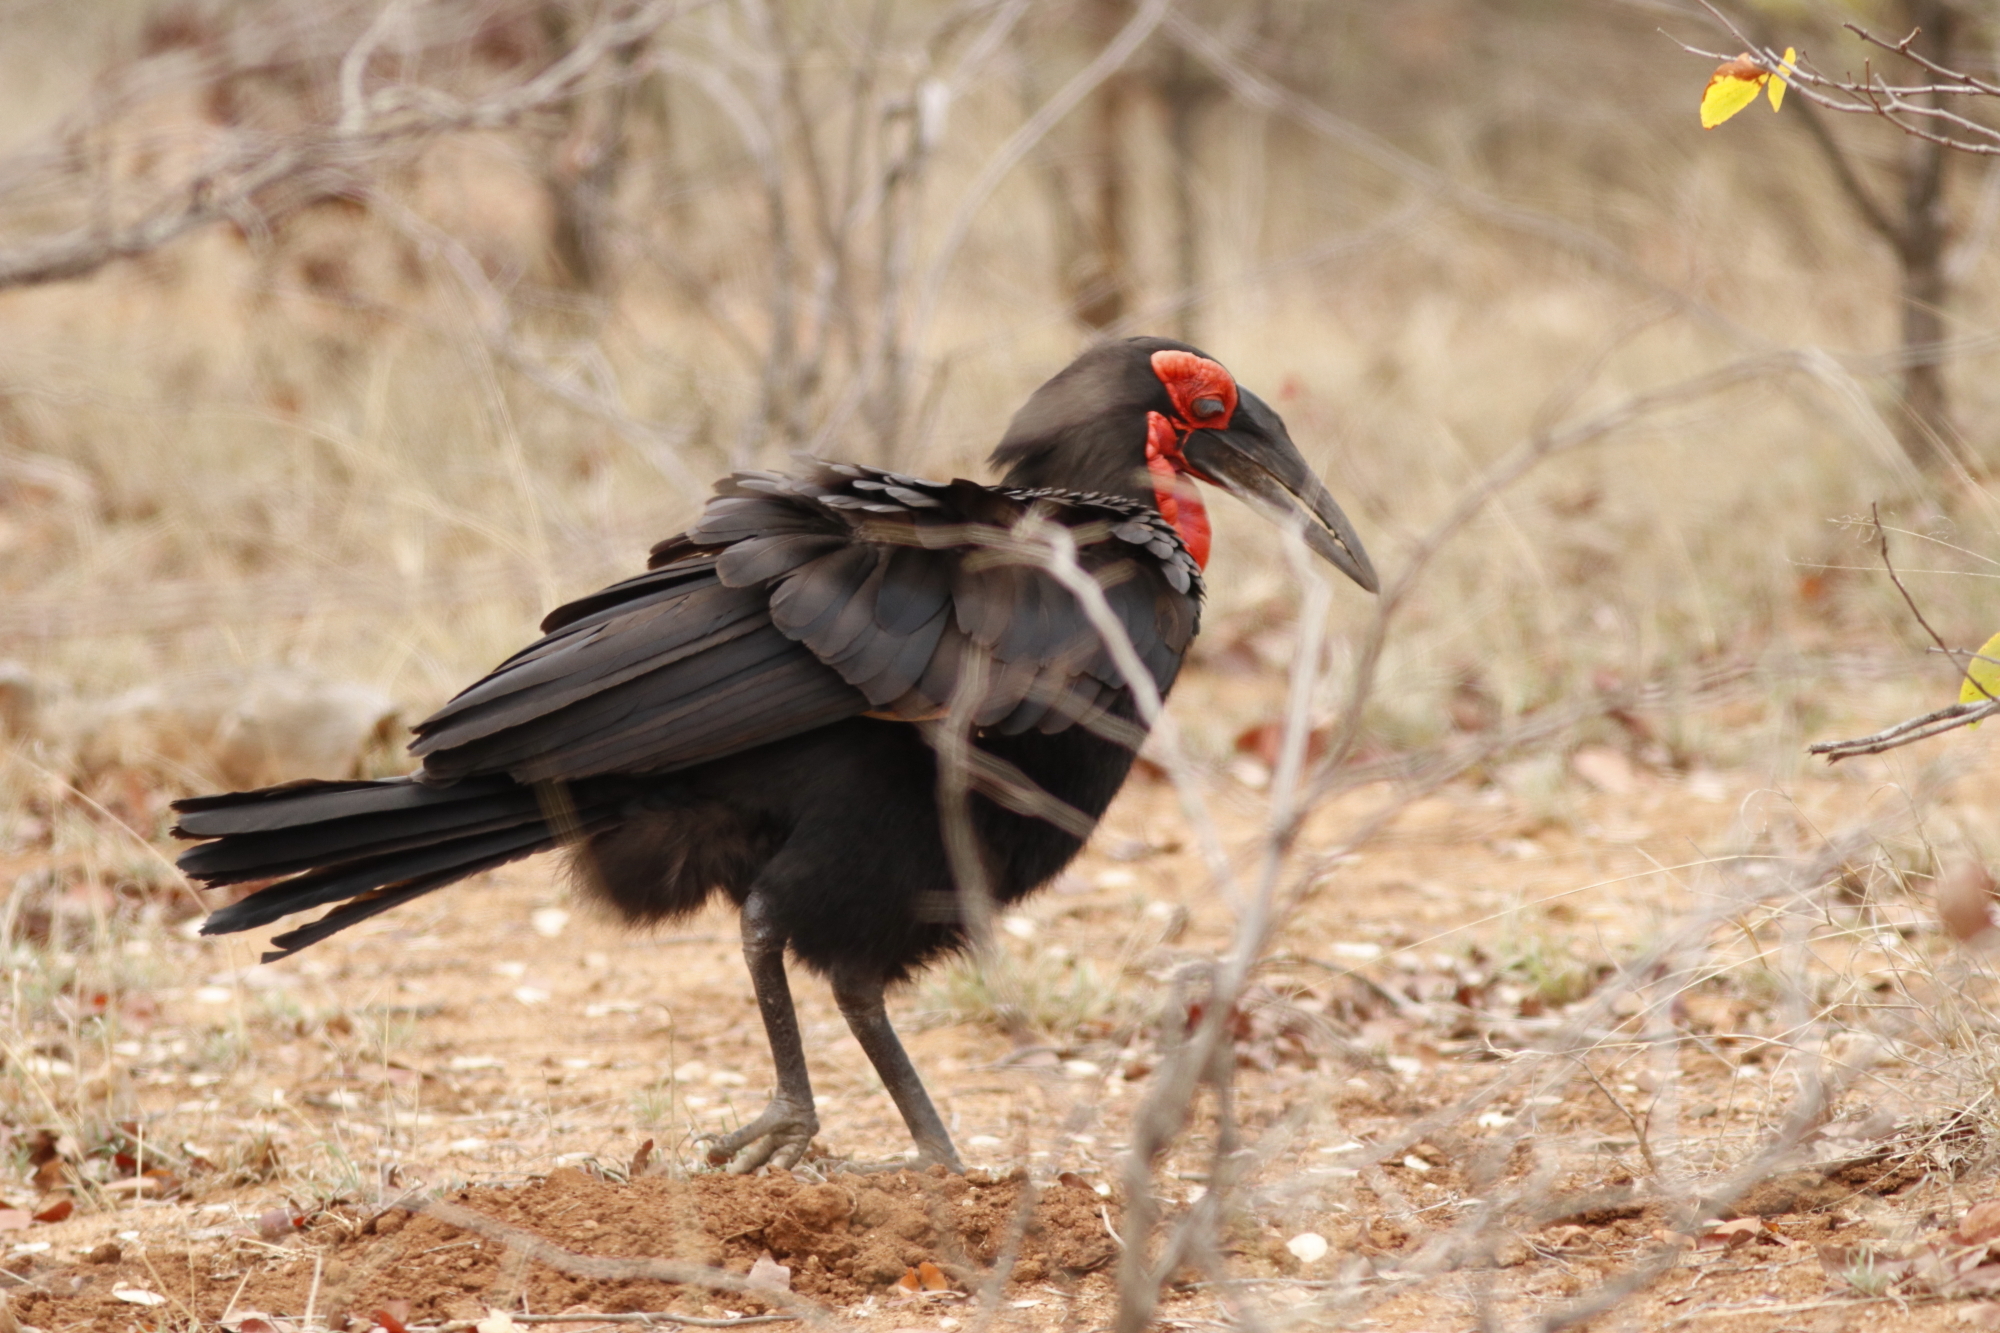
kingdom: Animalia
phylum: Chordata
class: Aves
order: Bucerotiformes
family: Bucorvidae
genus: Bucorvus
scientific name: Bucorvus leadbeateri
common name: Southern ground-hornbill
